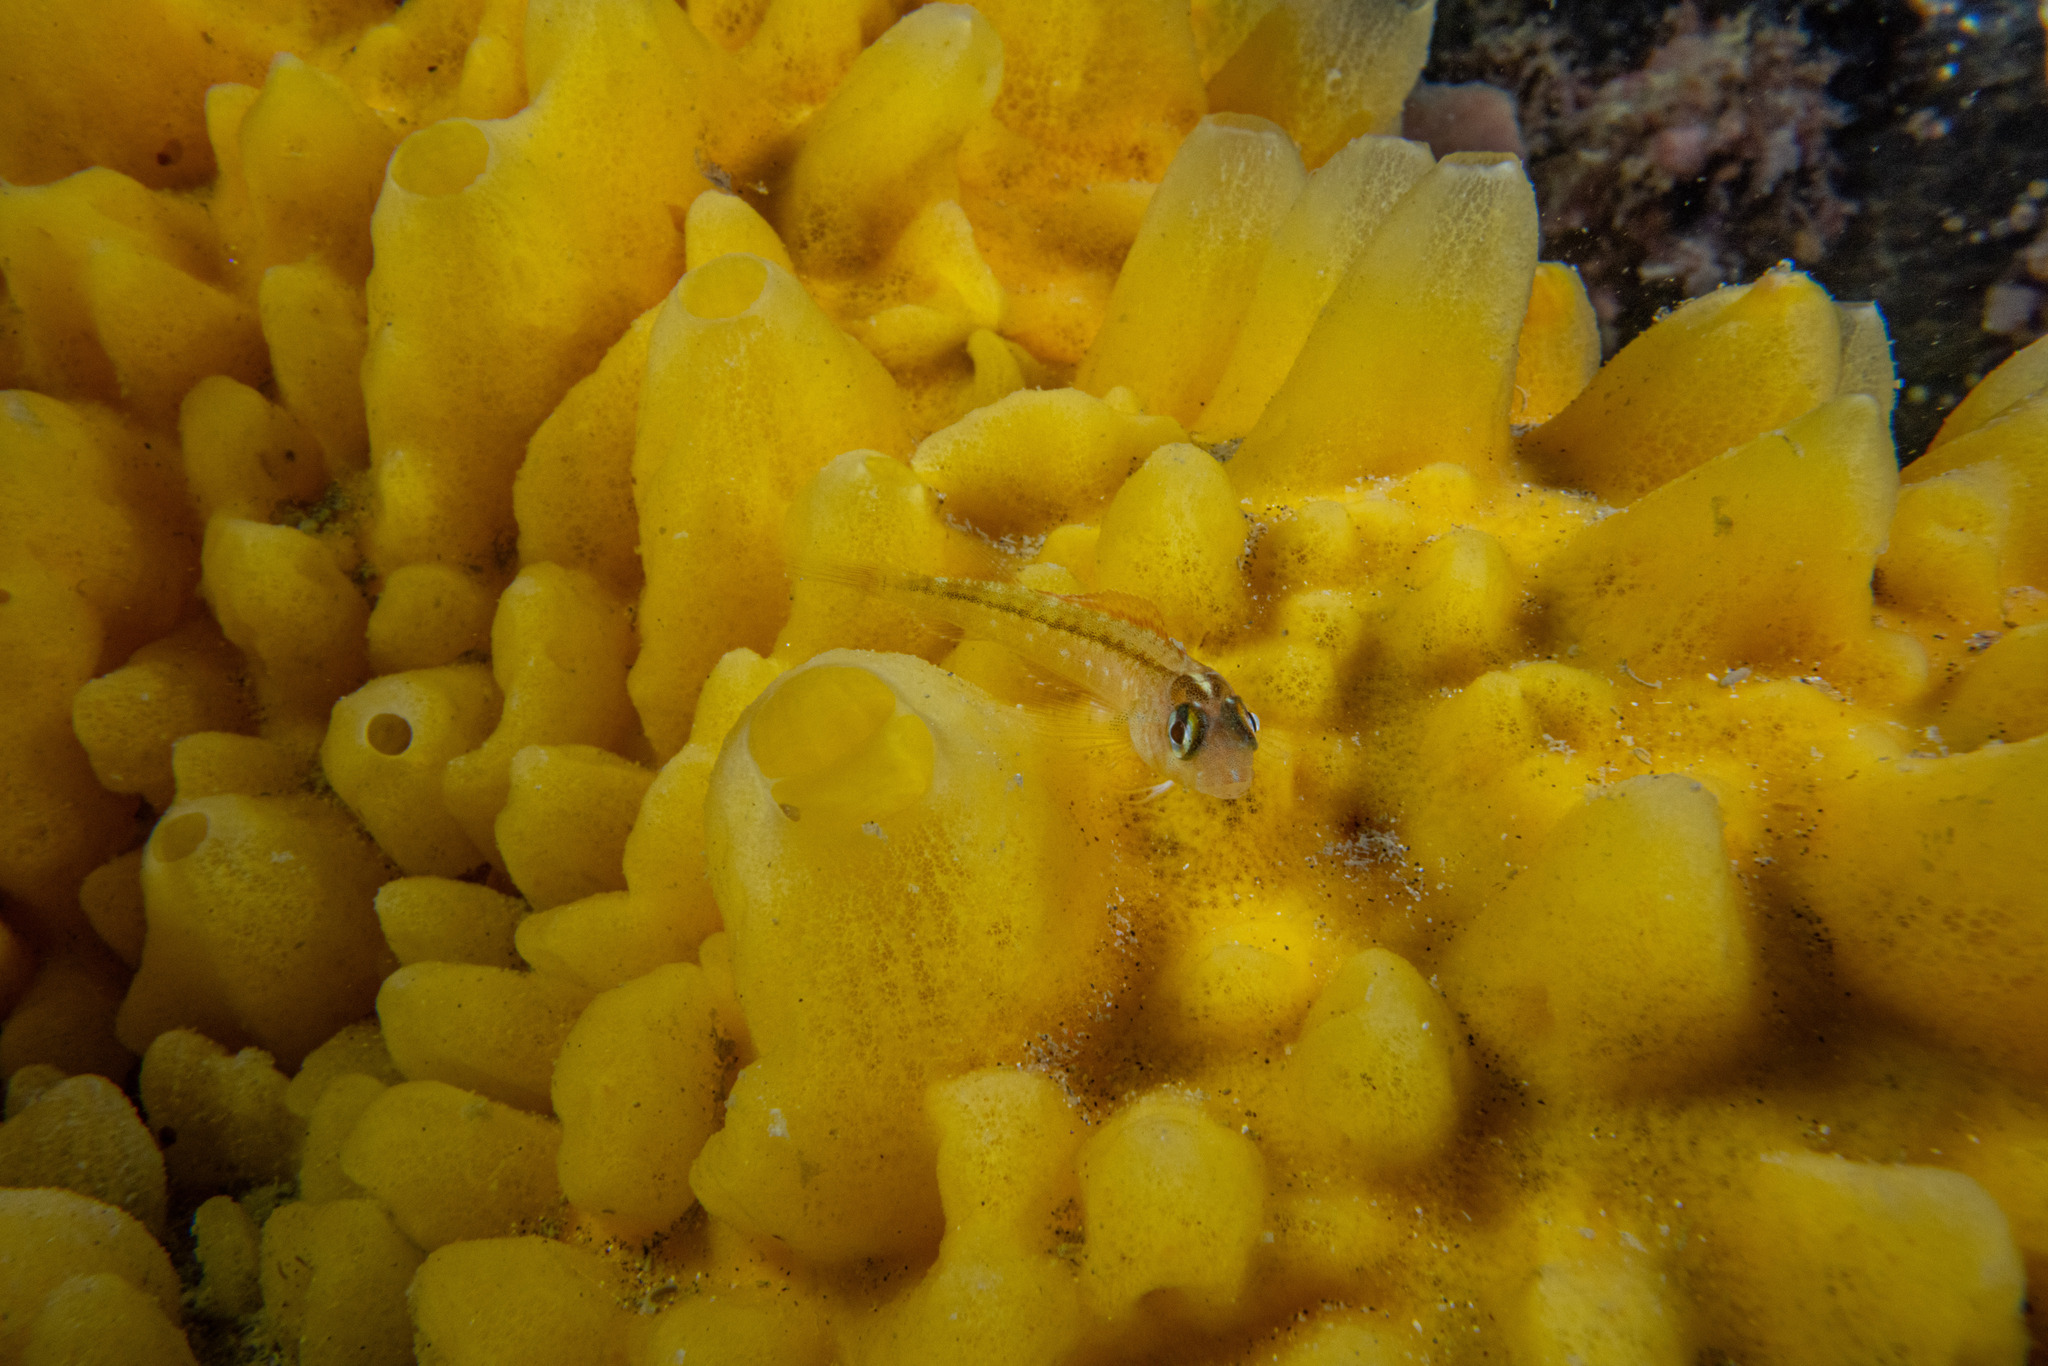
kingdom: Animalia
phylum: Chordata
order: Perciformes
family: Tripterygiidae
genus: Forsterygion
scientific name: Forsterygion lapillum
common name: Common triplefin
